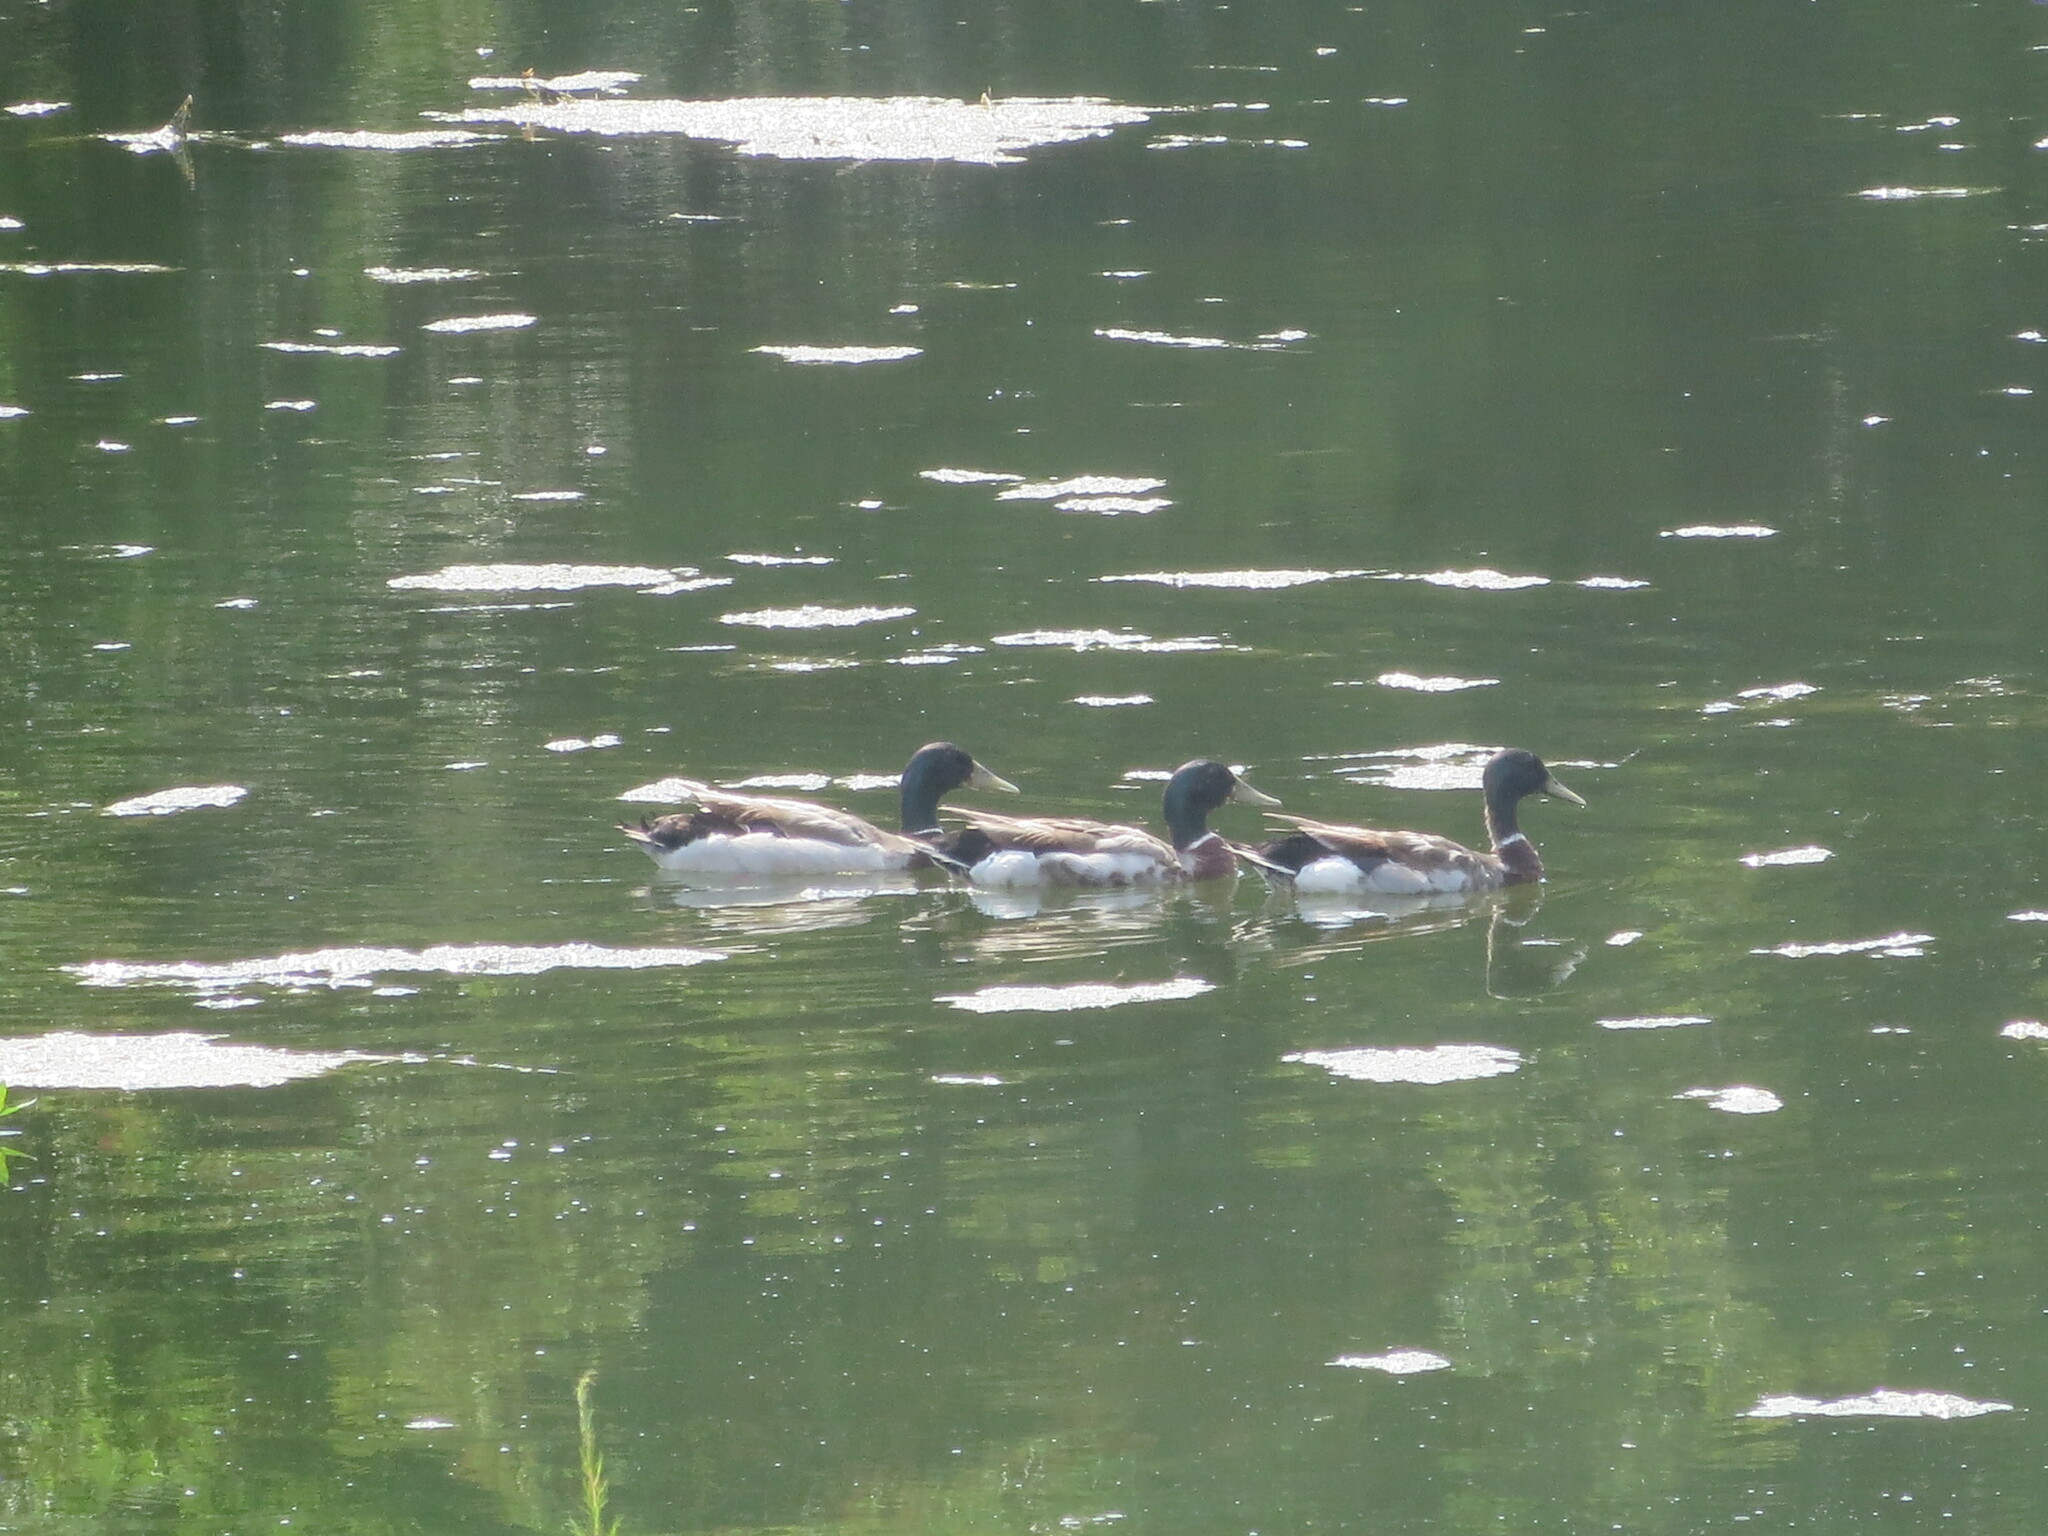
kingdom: Animalia
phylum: Chordata
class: Aves
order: Anseriformes
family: Anatidae
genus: Anas
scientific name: Anas platyrhynchos
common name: Mallard
